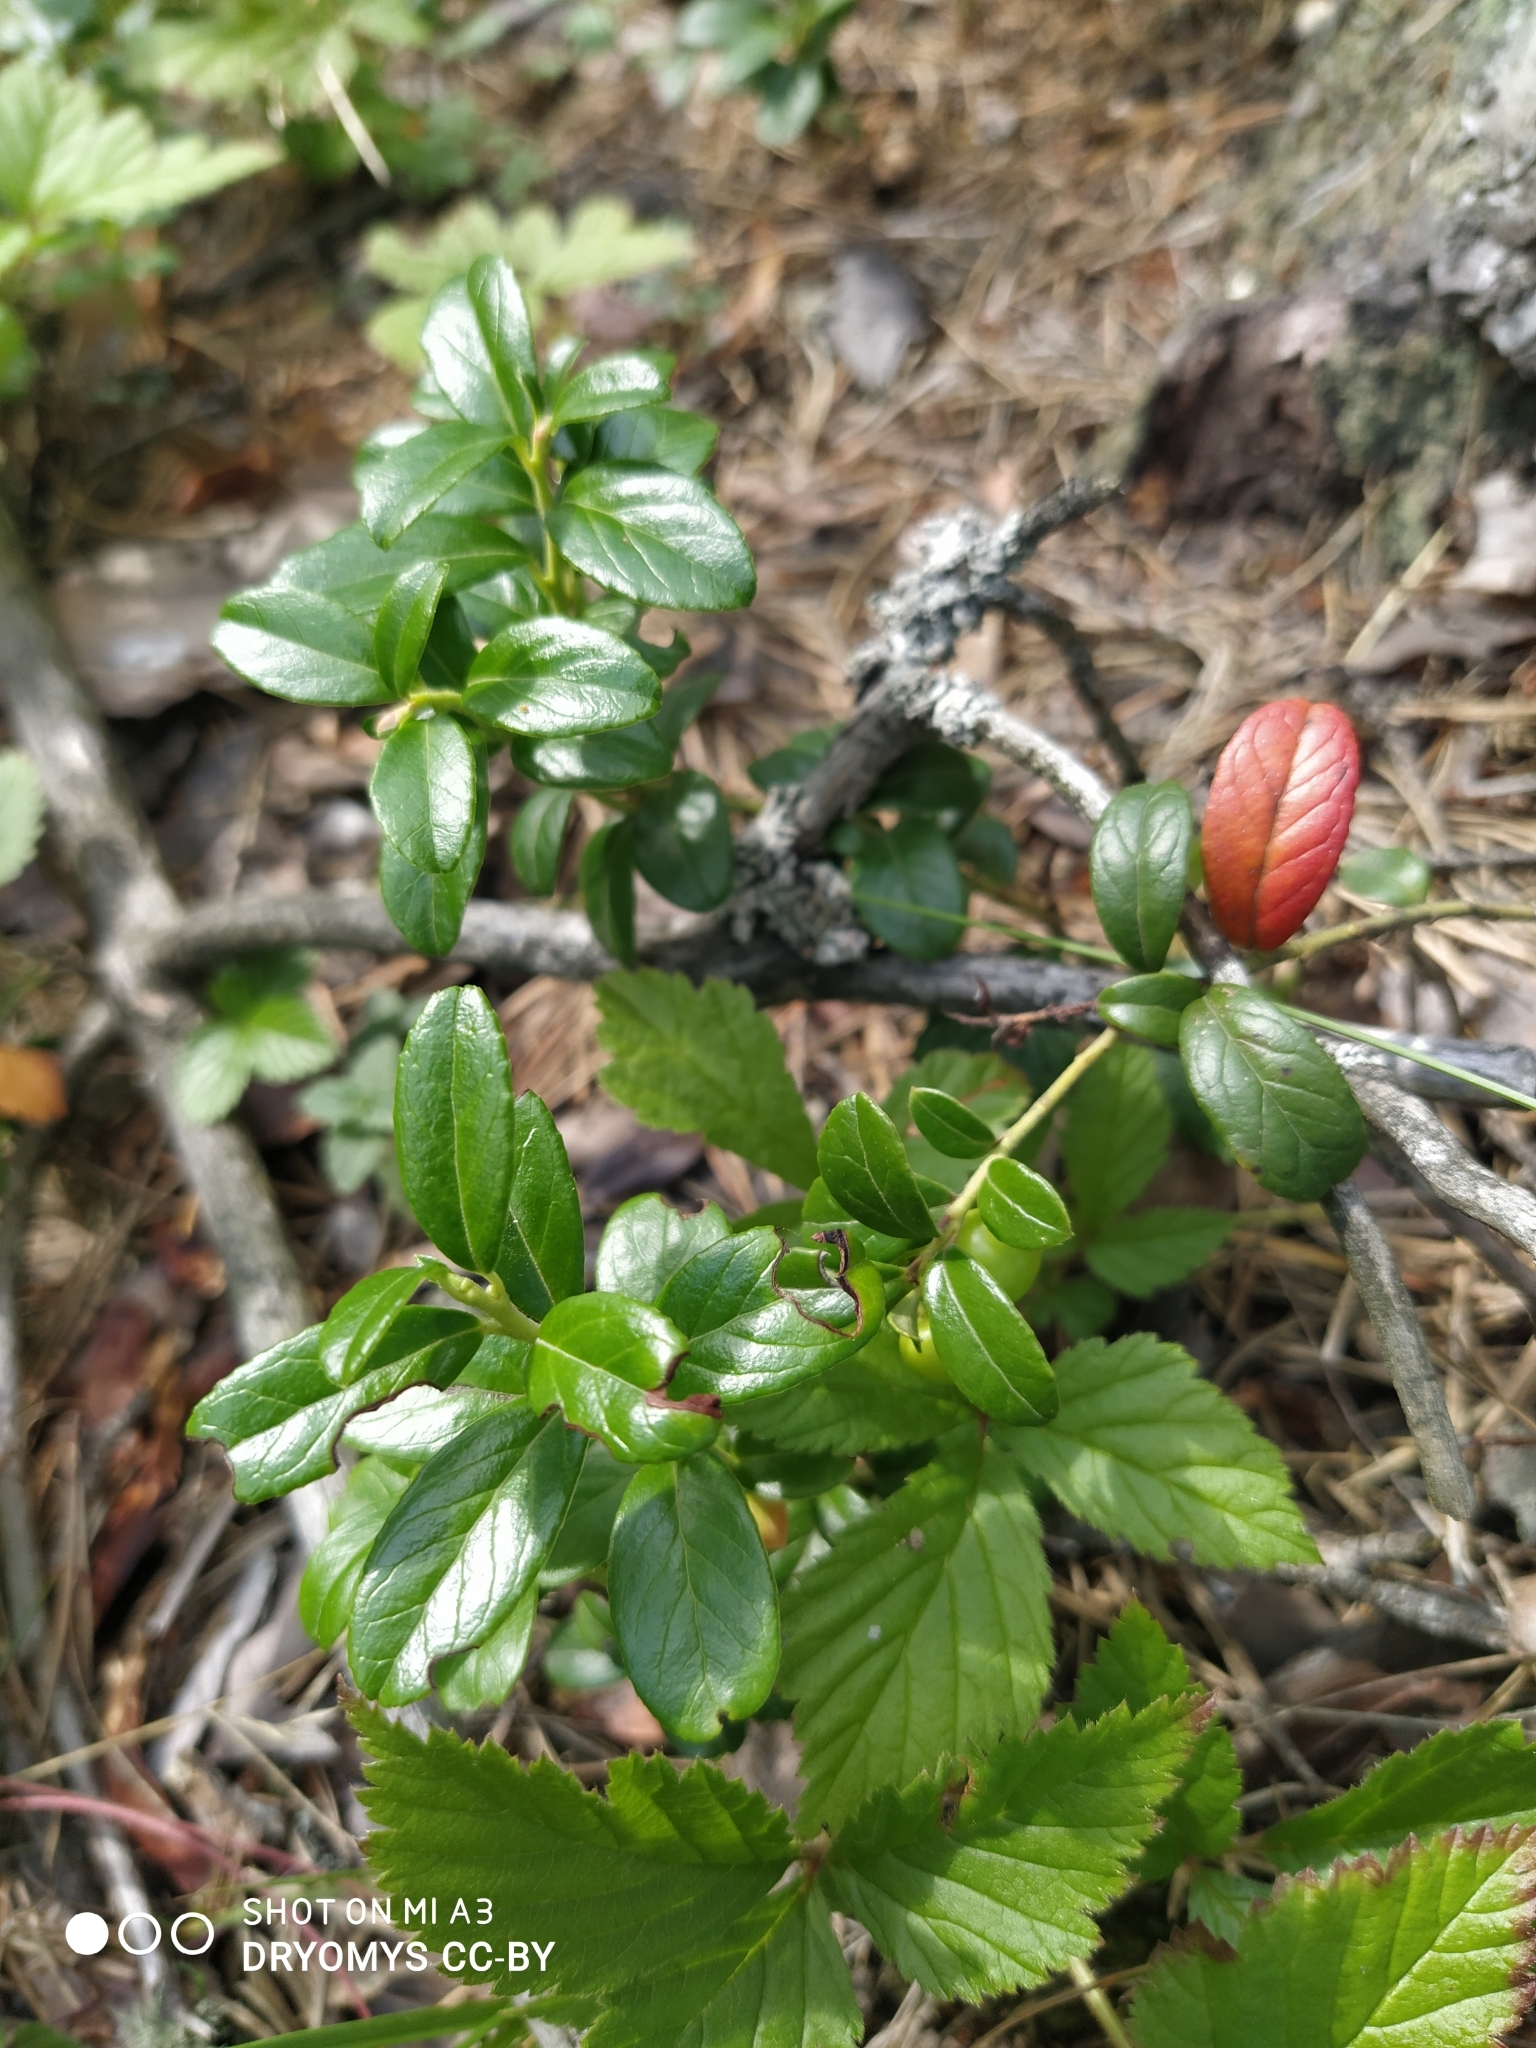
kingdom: Plantae
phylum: Tracheophyta
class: Magnoliopsida
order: Ericales
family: Ericaceae
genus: Vaccinium
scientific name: Vaccinium vitis-idaea
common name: Cowberry
